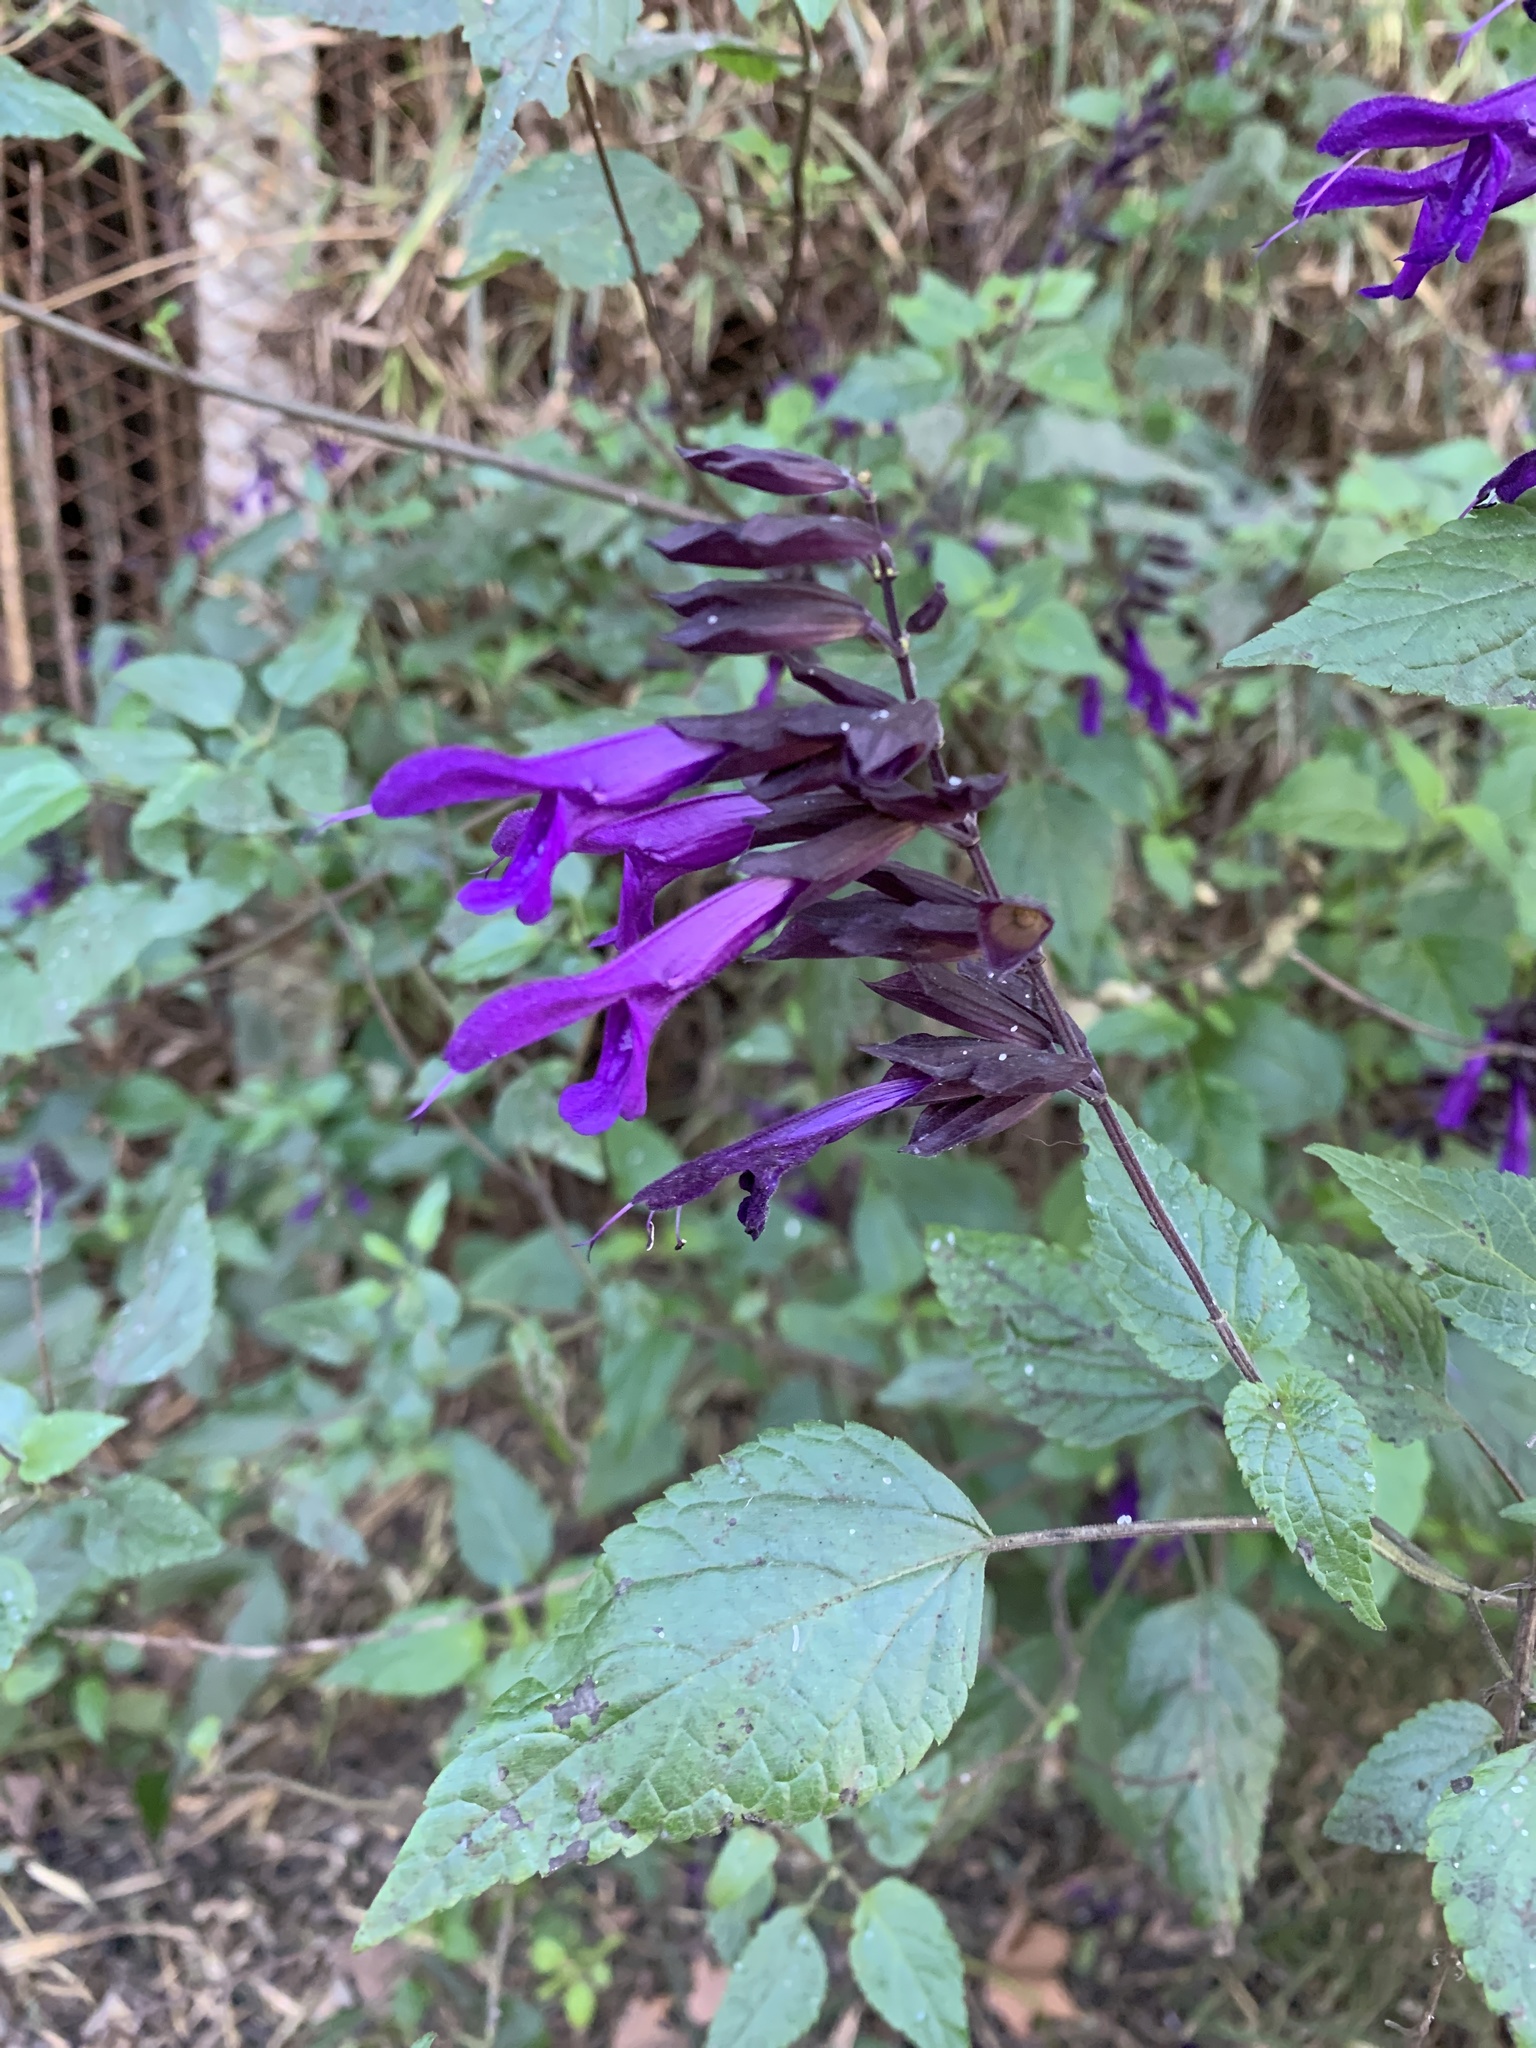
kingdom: Plantae
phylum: Tracheophyta
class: Magnoliopsida
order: Lamiales
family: Lamiaceae
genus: Salvia
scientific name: Salvia guaranitica
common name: Anise-scented sage
